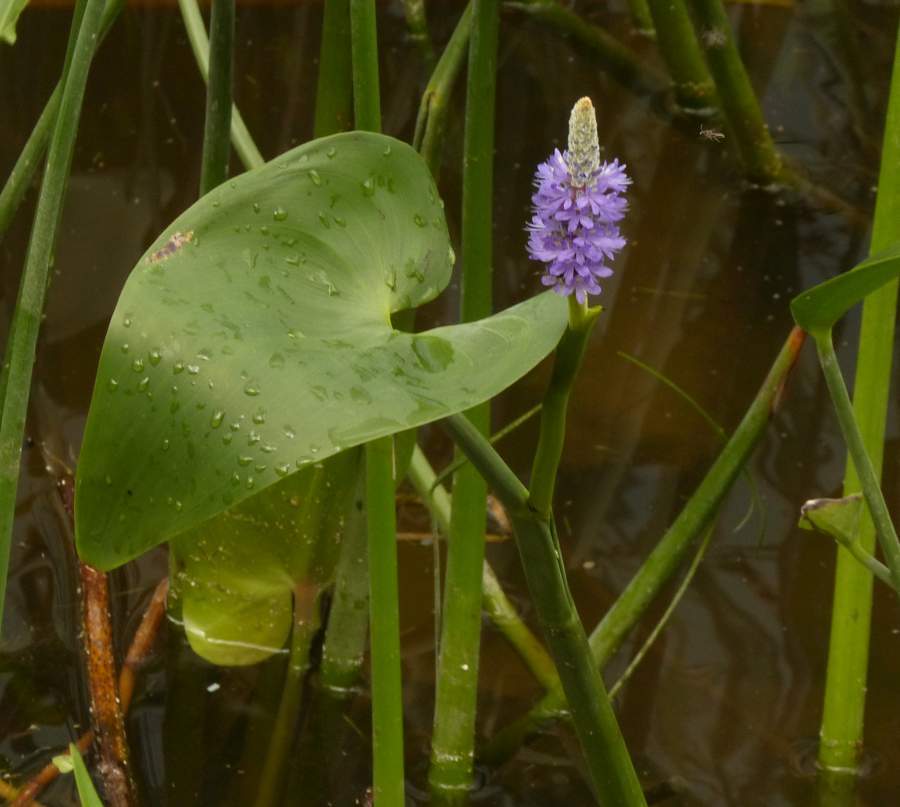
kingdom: Plantae
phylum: Tracheophyta
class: Liliopsida
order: Commelinales
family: Pontederiaceae
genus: Pontederia
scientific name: Pontederia cordata
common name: Pickerelweed
